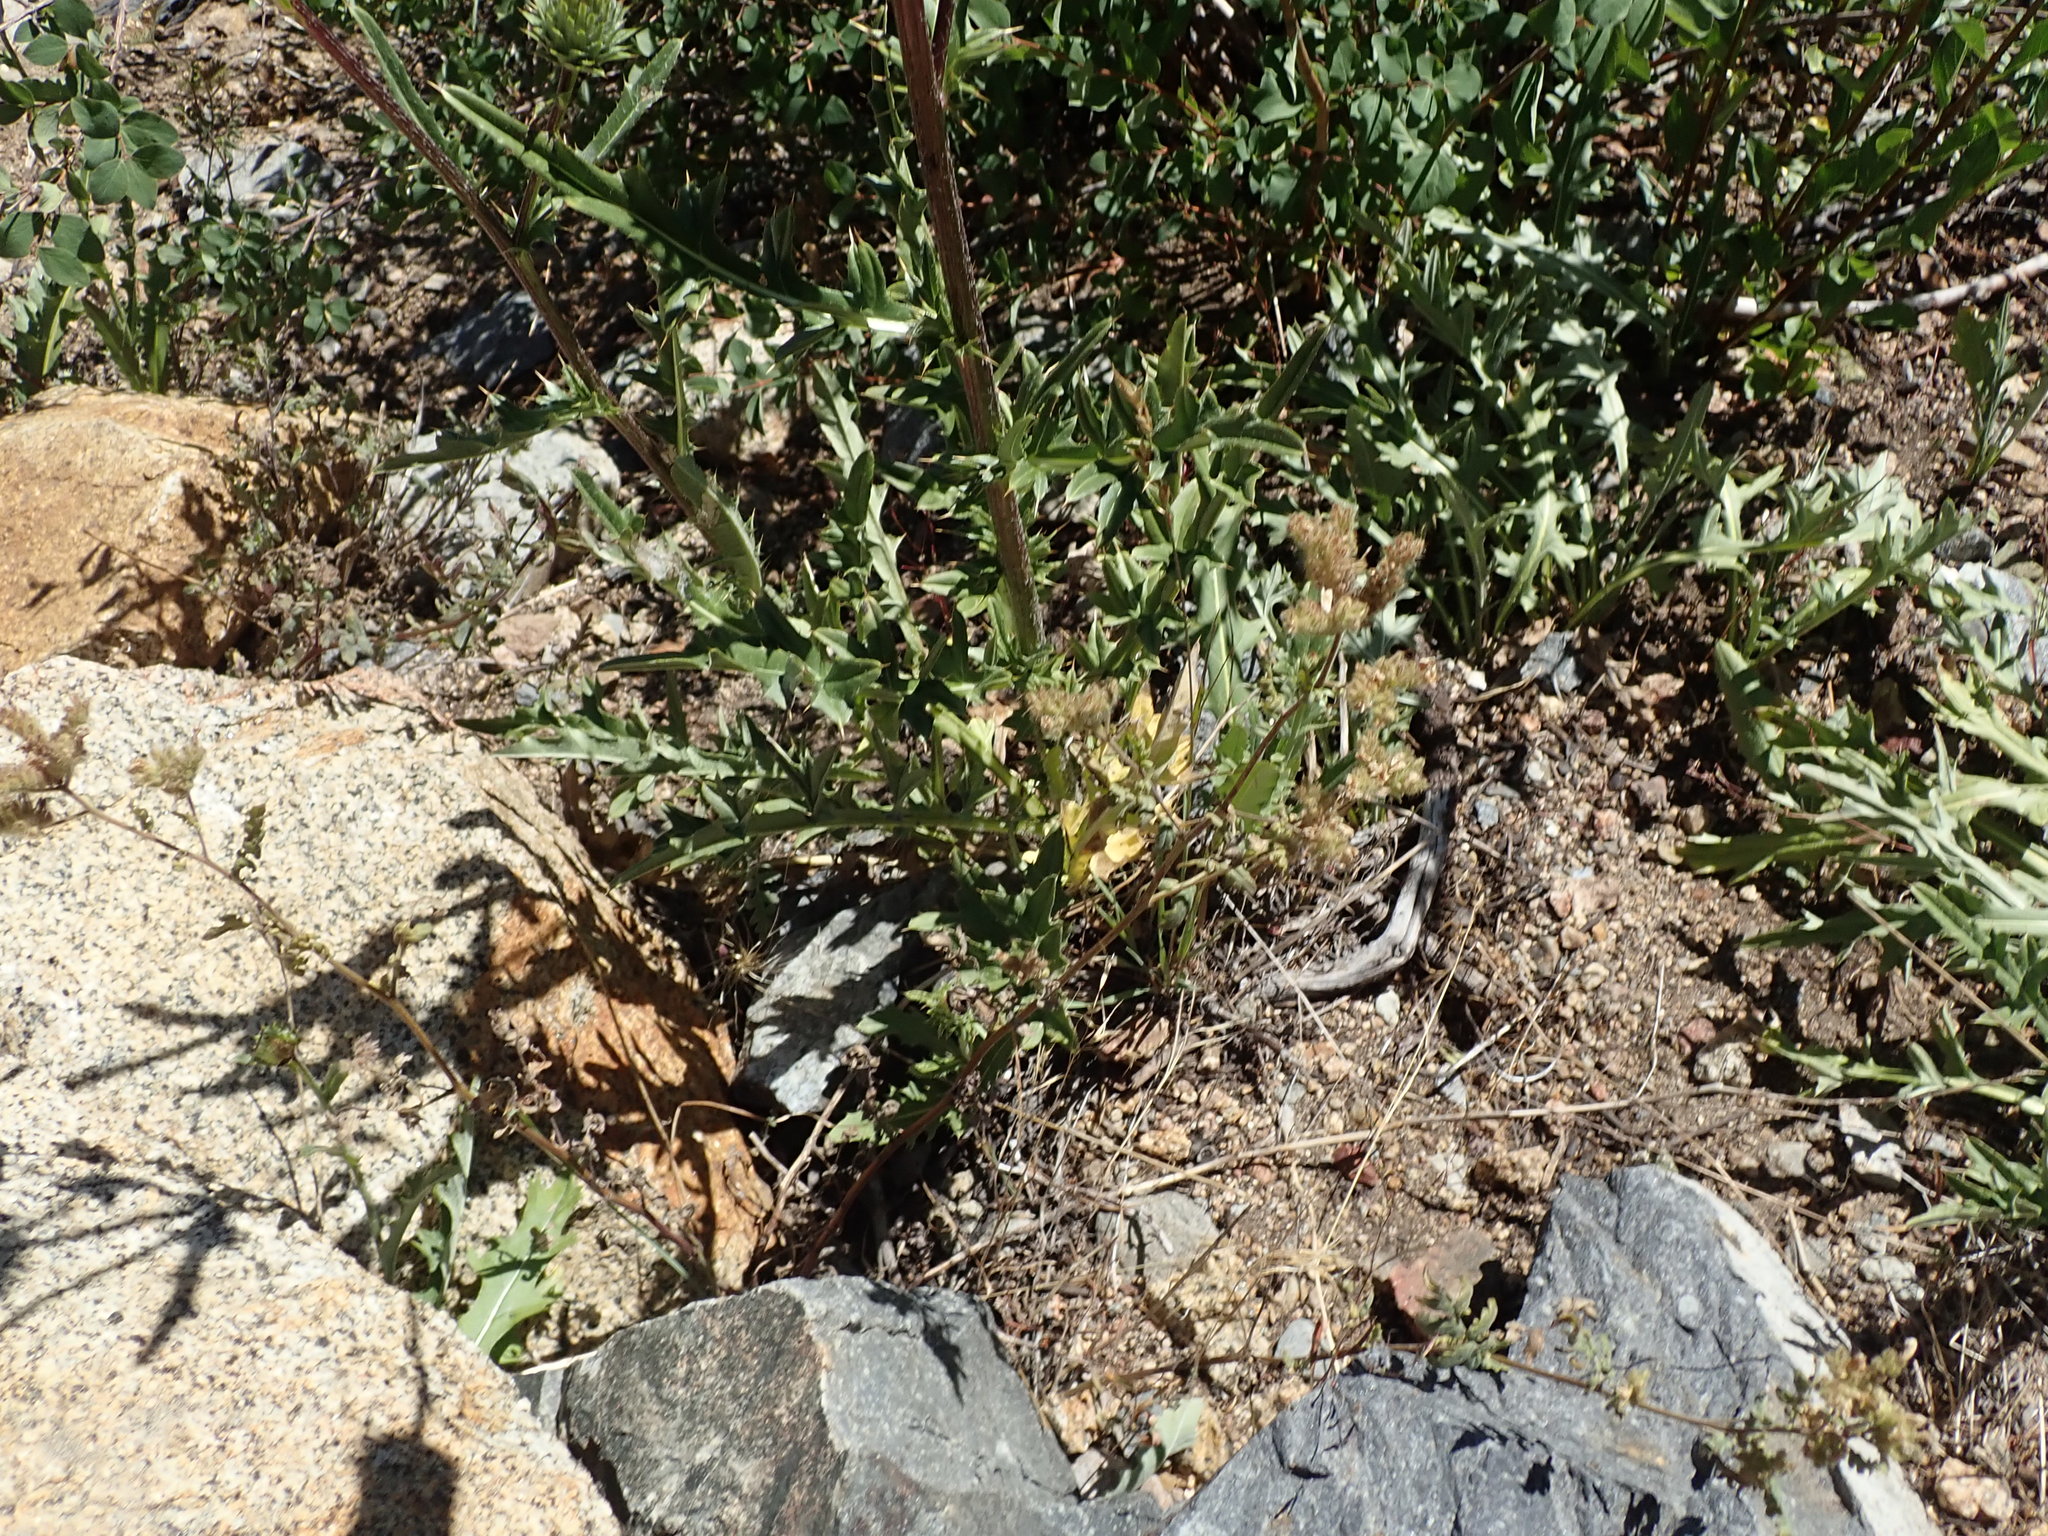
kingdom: Plantae
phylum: Tracheophyta
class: Magnoliopsida
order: Asterales
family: Asteraceae
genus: Cirsium
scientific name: Cirsium andersonii
